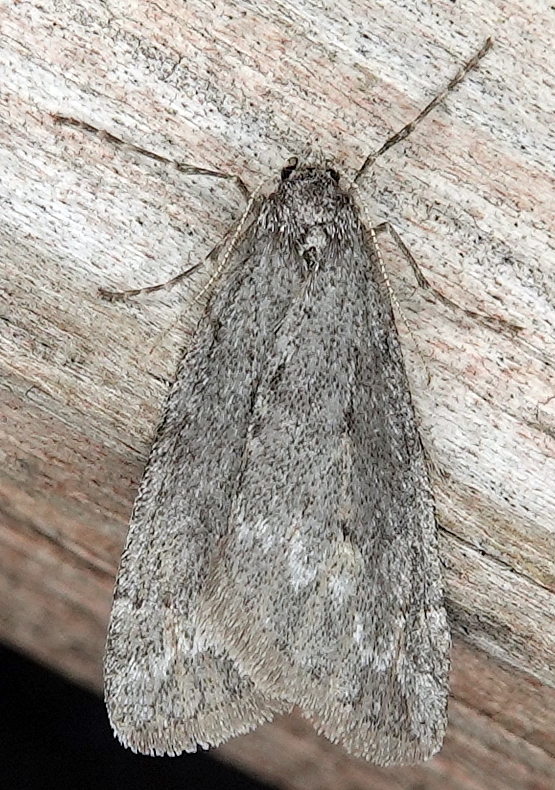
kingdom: Animalia
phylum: Arthropoda
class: Insecta
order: Lepidoptera
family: Geometridae
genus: Paleacrita
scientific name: Paleacrita vernata
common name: Spring cankerworm
